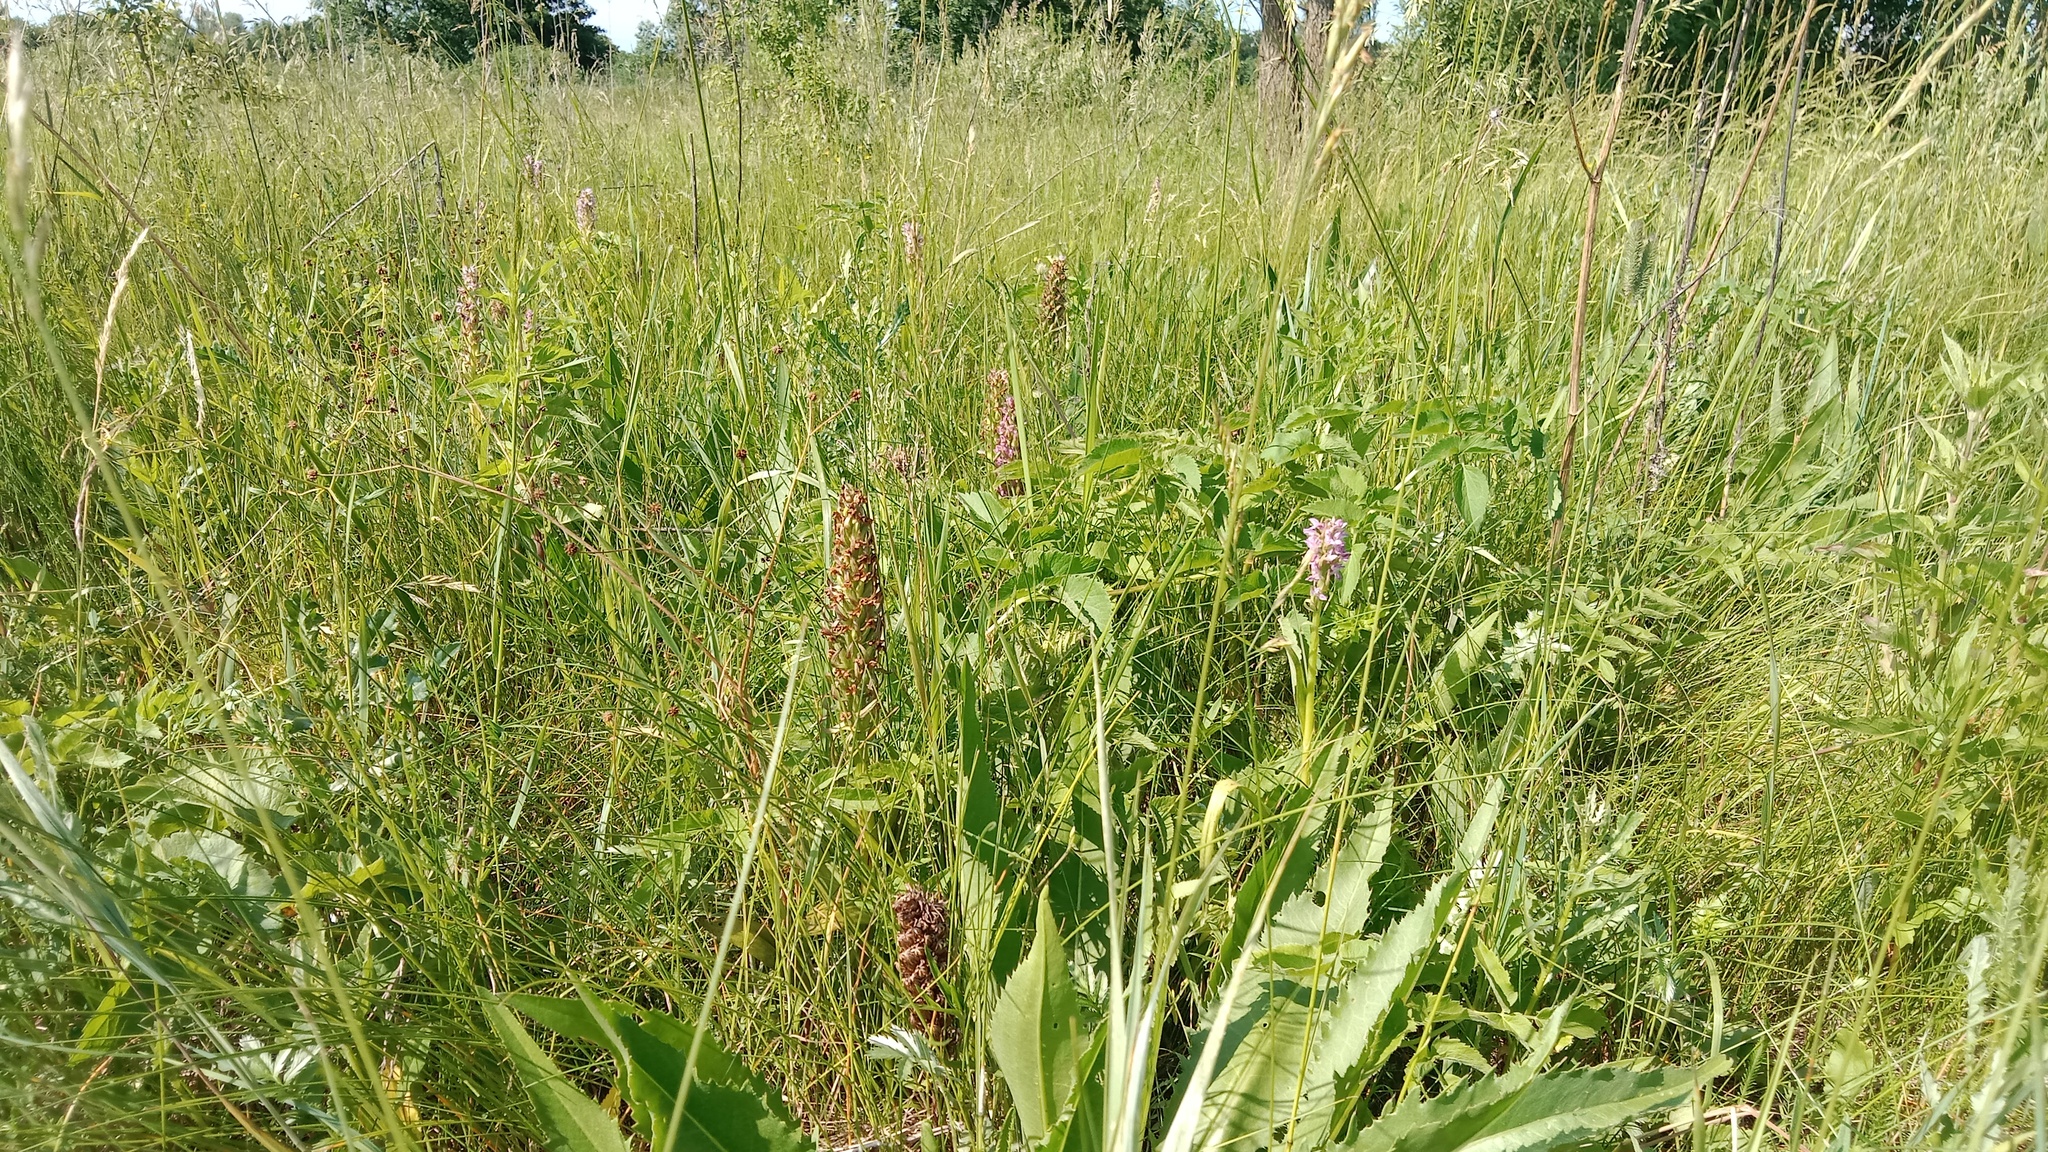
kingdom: Plantae
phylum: Tracheophyta
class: Liliopsida
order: Asparagales
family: Orchidaceae
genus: Dactylorhiza
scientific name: Dactylorhiza incarnata
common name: Early marsh-orchid
